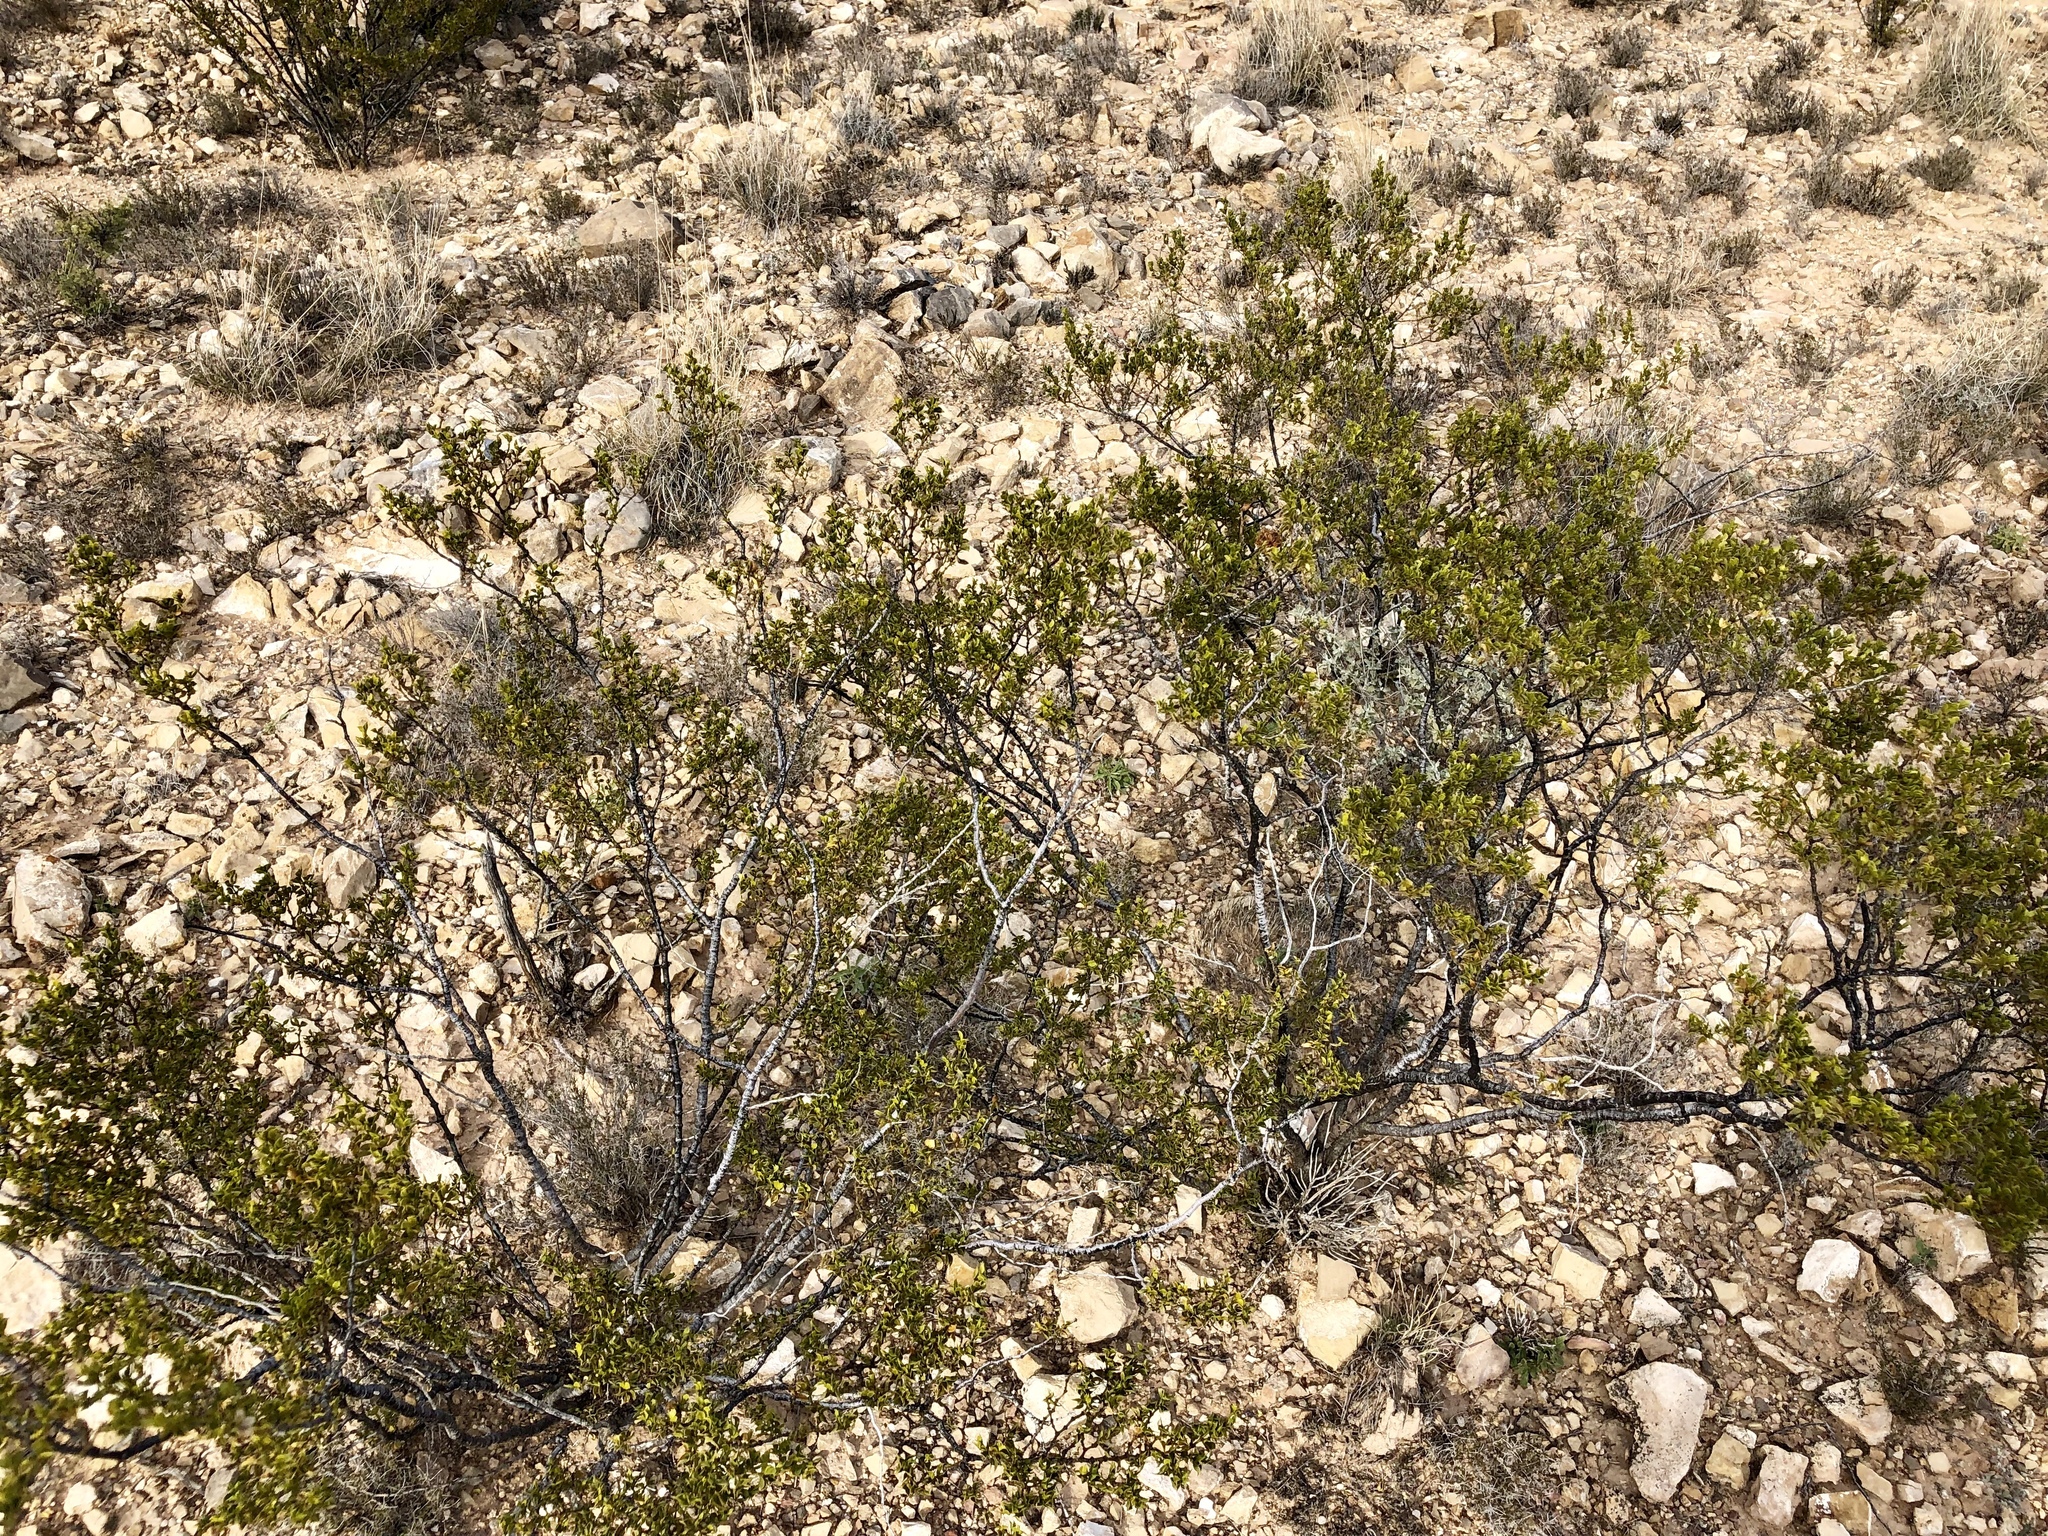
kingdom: Plantae
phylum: Tracheophyta
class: Magnoliopsida
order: Zygophyllales
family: Zygophyllaceae
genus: Larrea
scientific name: Larrea tridentata
